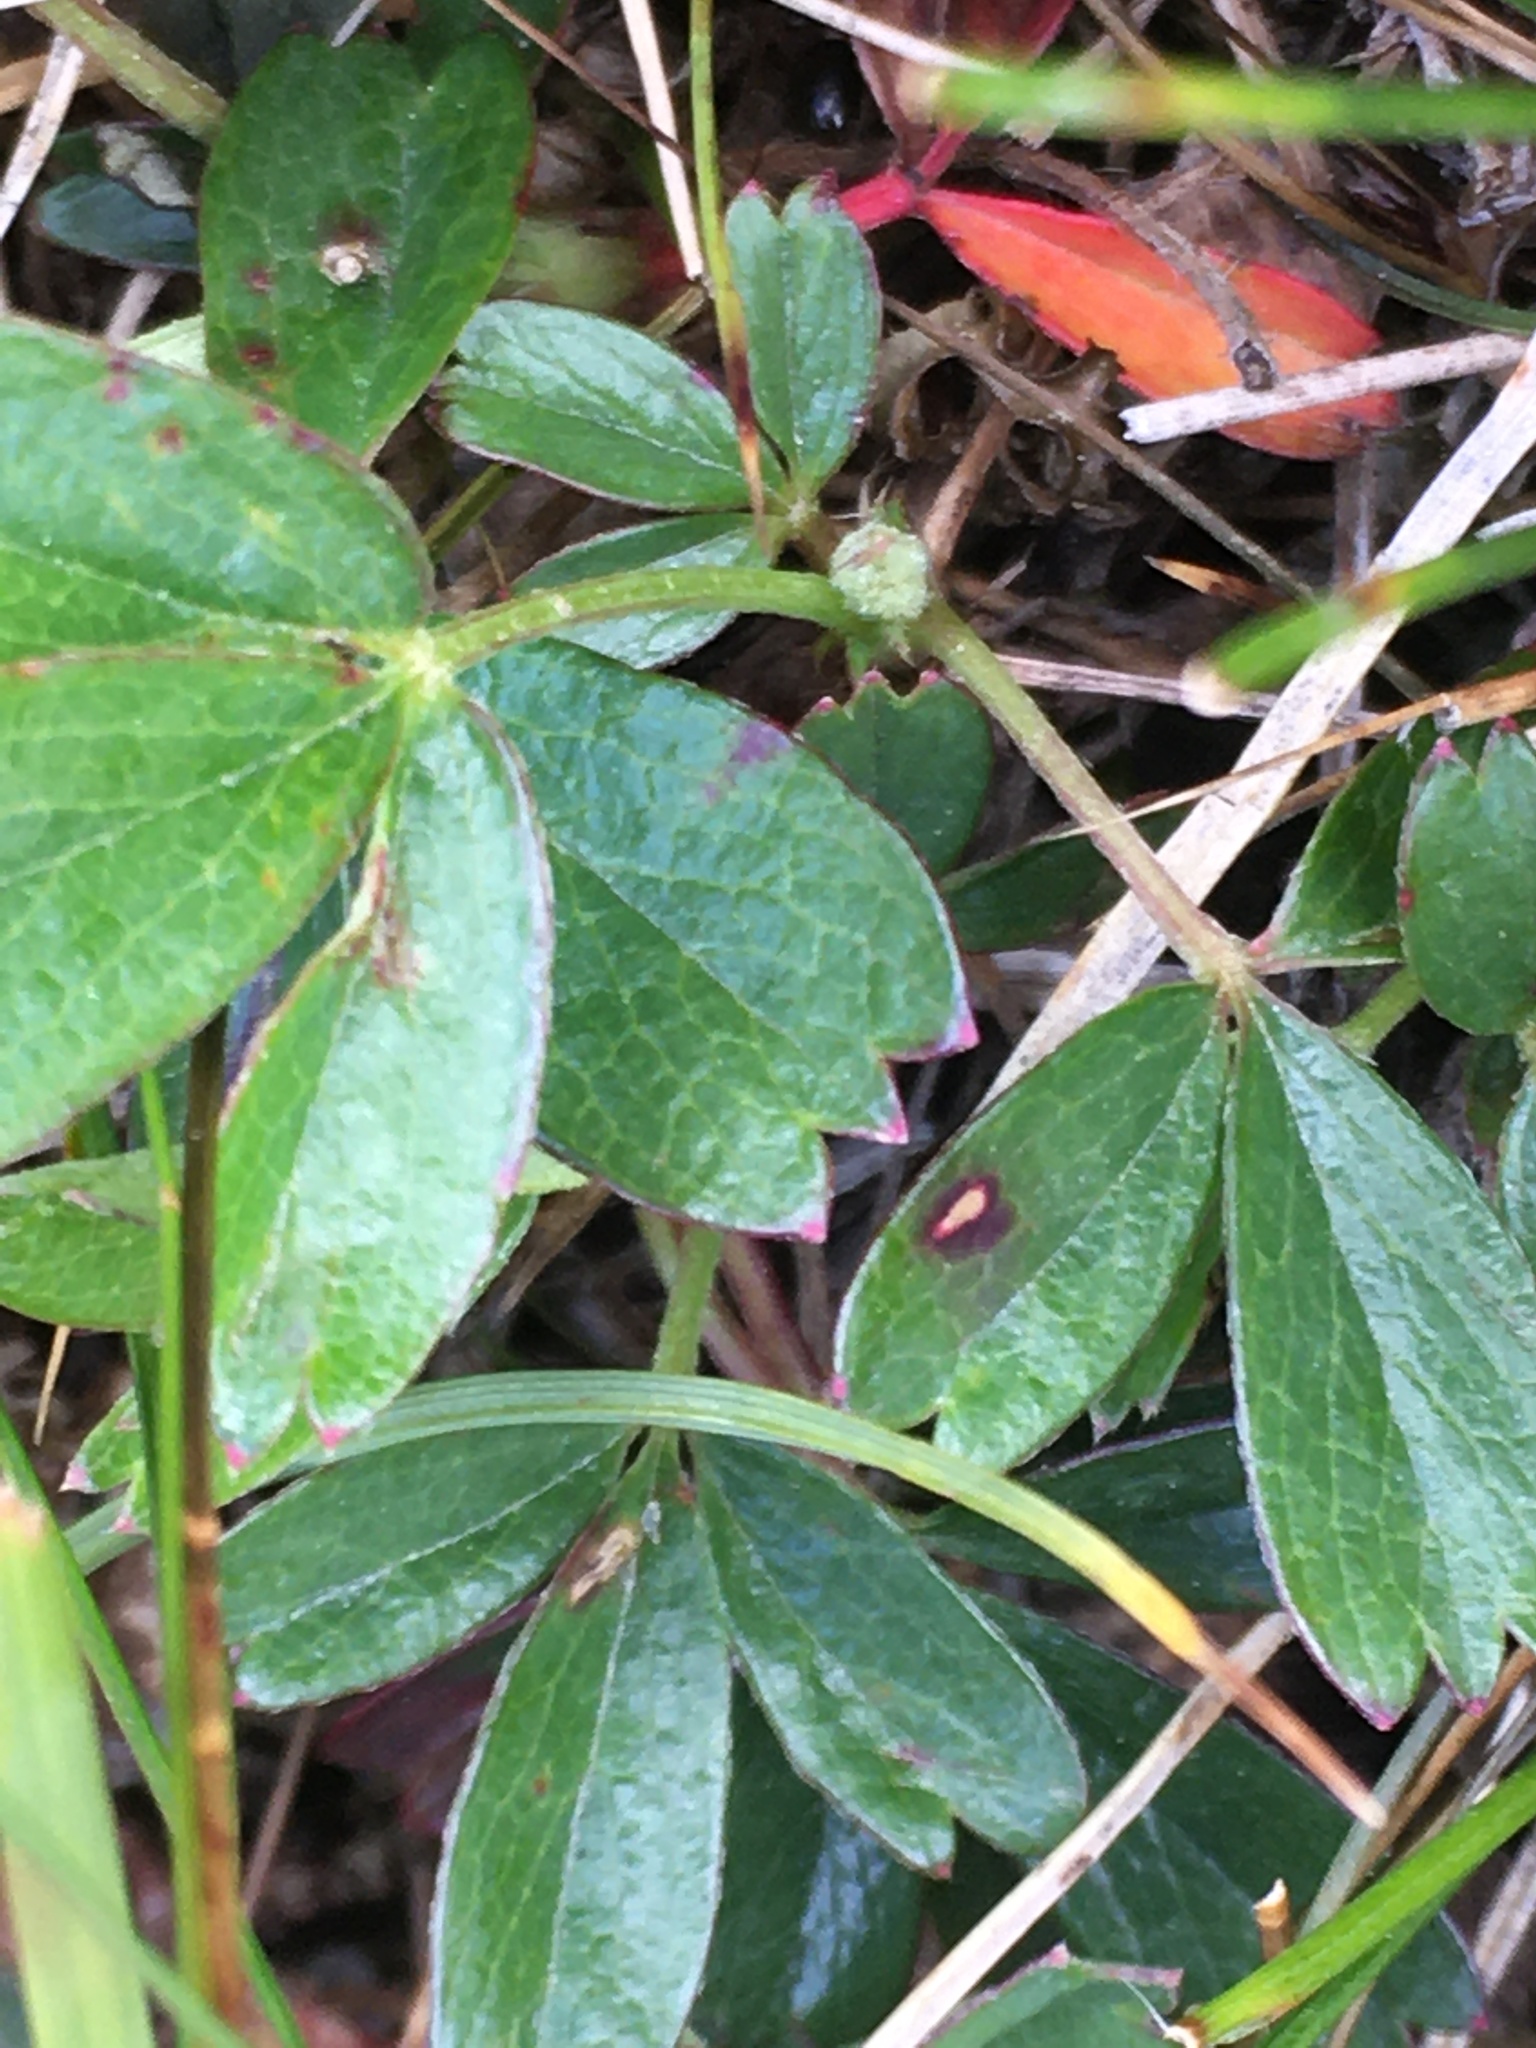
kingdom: Plantae
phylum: Tracheophyta
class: Magnoliopsida
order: Rosales
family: Rosaceae
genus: Sibbaldia
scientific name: Sibbaldia tridentata
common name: Three-toothed cinquefoil
